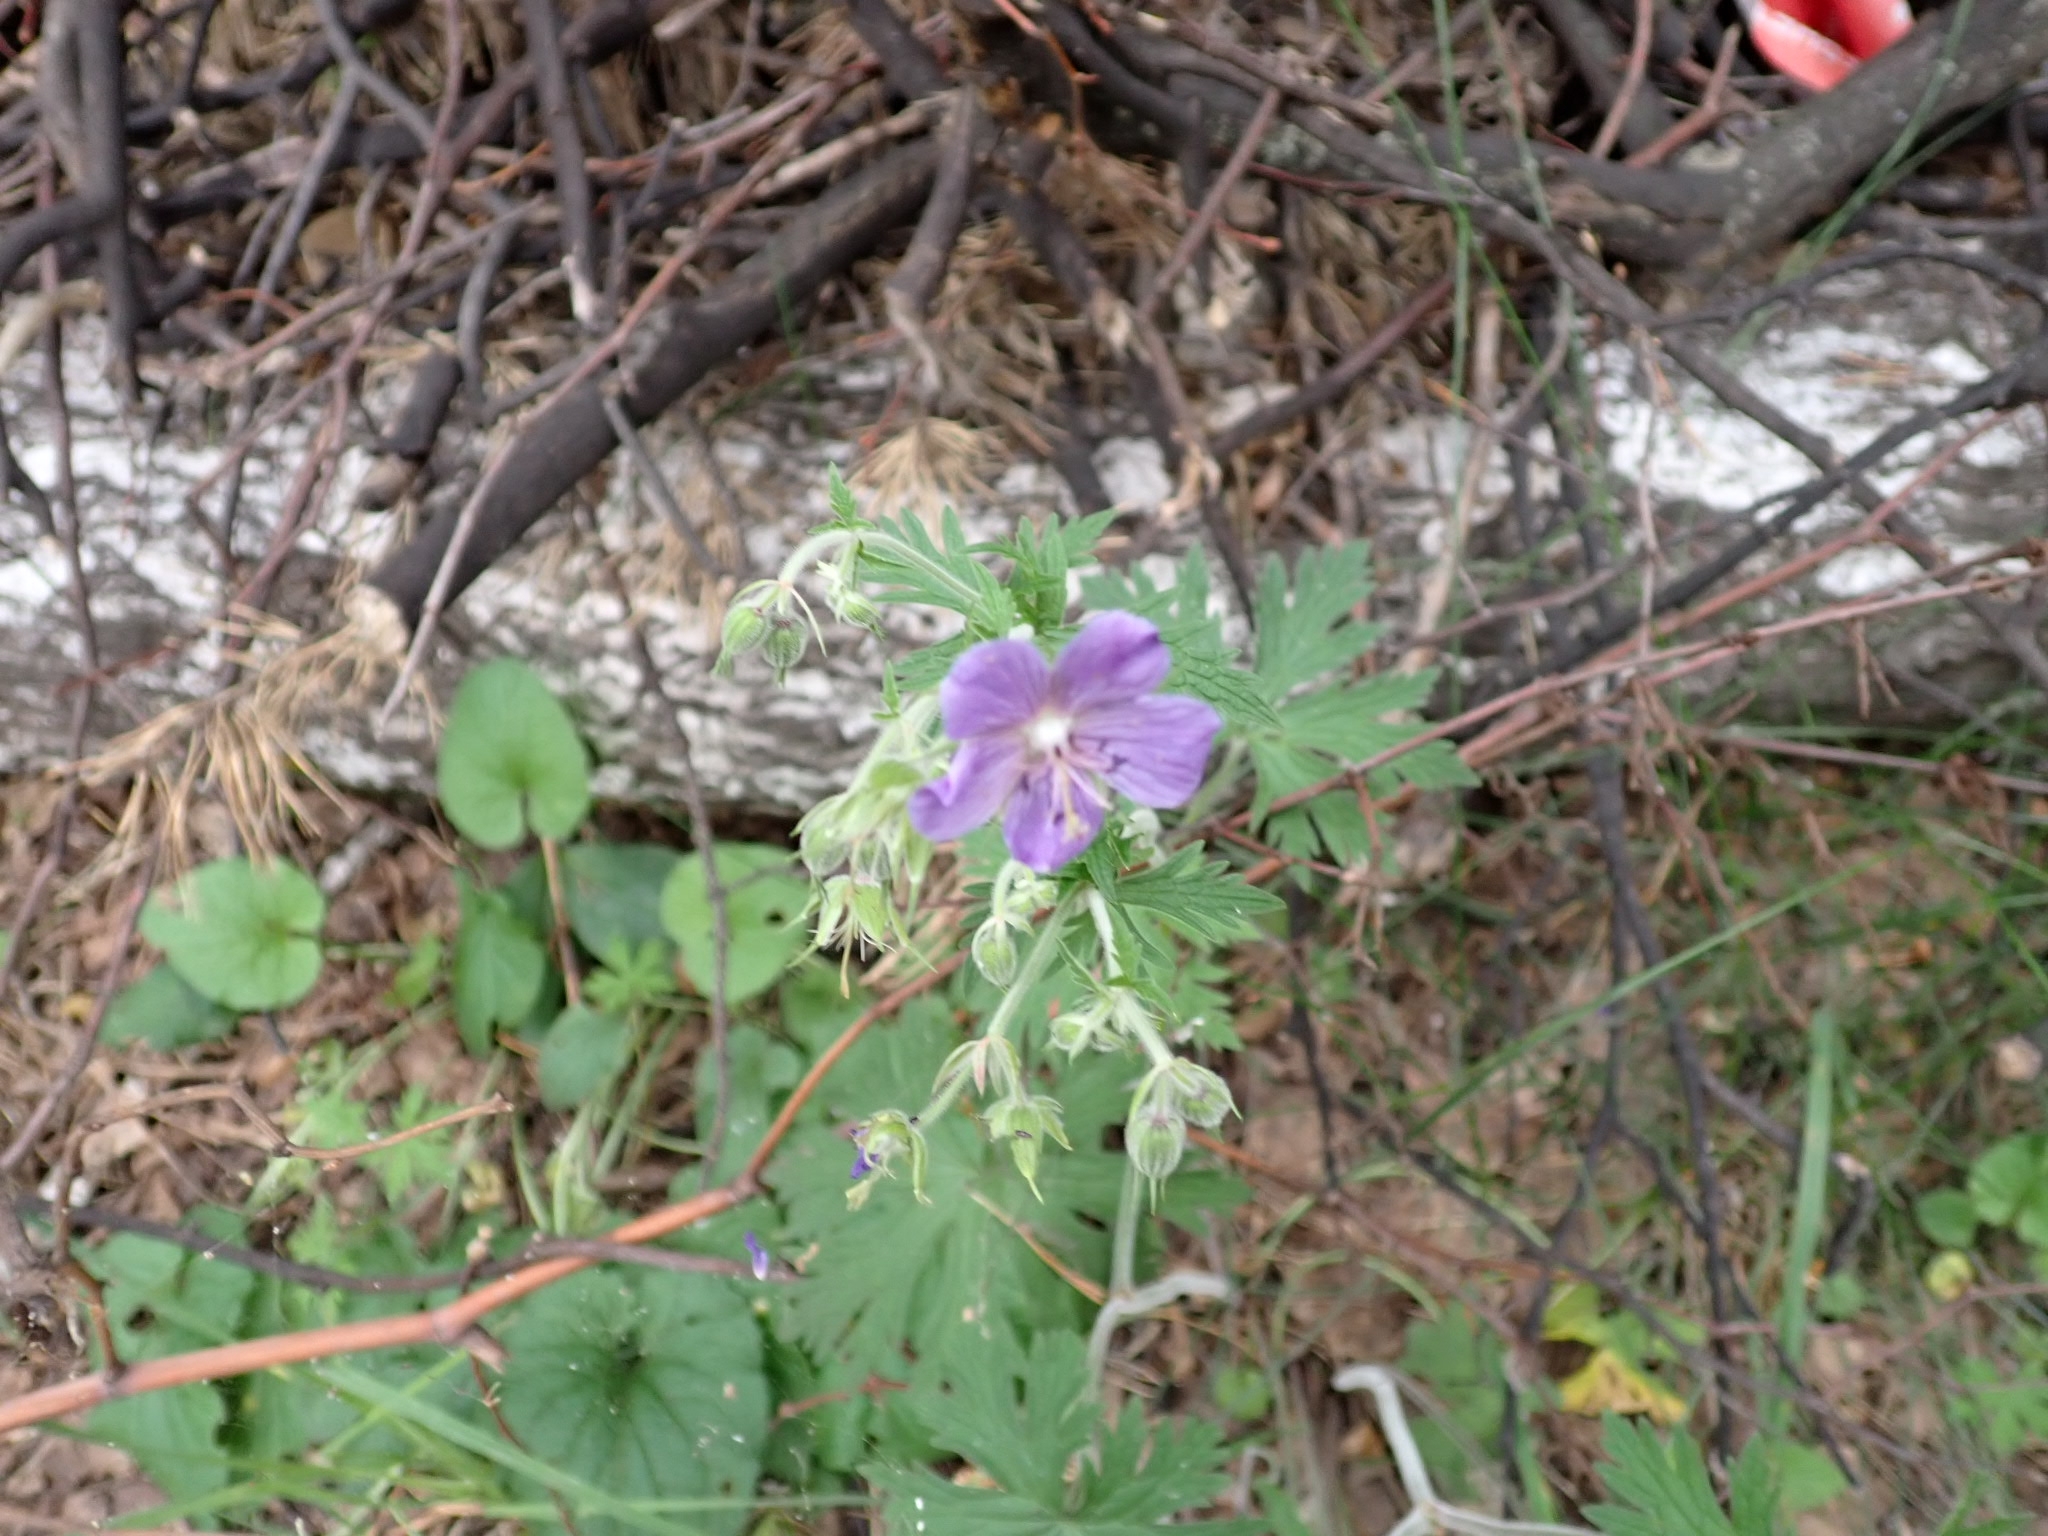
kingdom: Plantae
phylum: Tracheophyta
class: Magnoliopsida
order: Geraniales
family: Geraniaceae
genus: Geranium
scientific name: Geranium pratense
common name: Meadow crane's-bill
